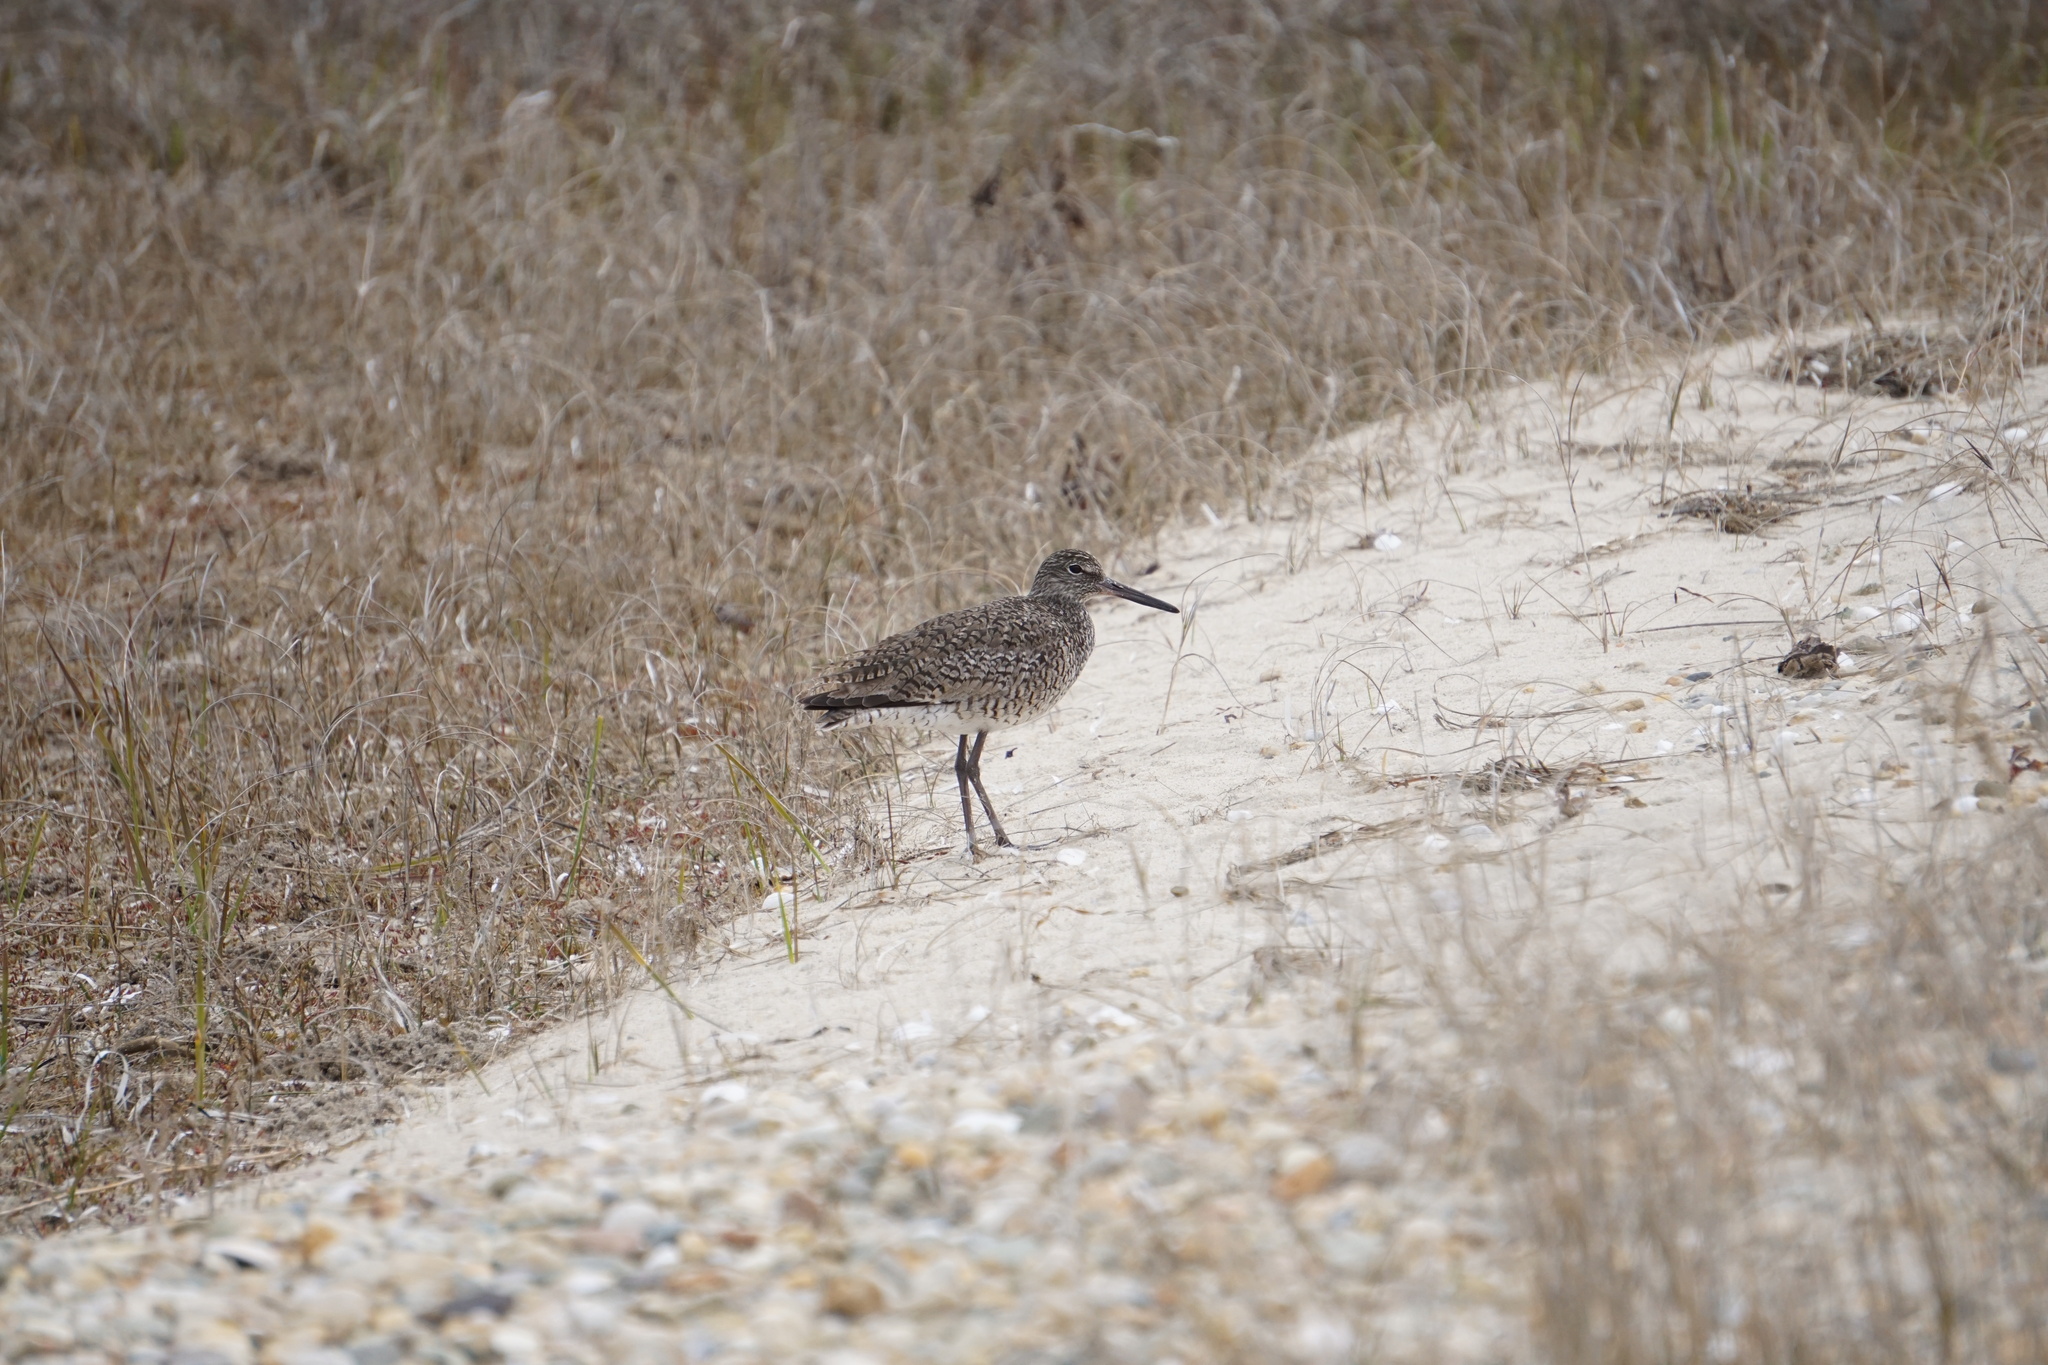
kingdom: Animalia
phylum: Chordata
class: Aves
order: Charadriiformes
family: Scolopacidae
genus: Tringa
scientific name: Tringa semipalmata
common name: Willet
